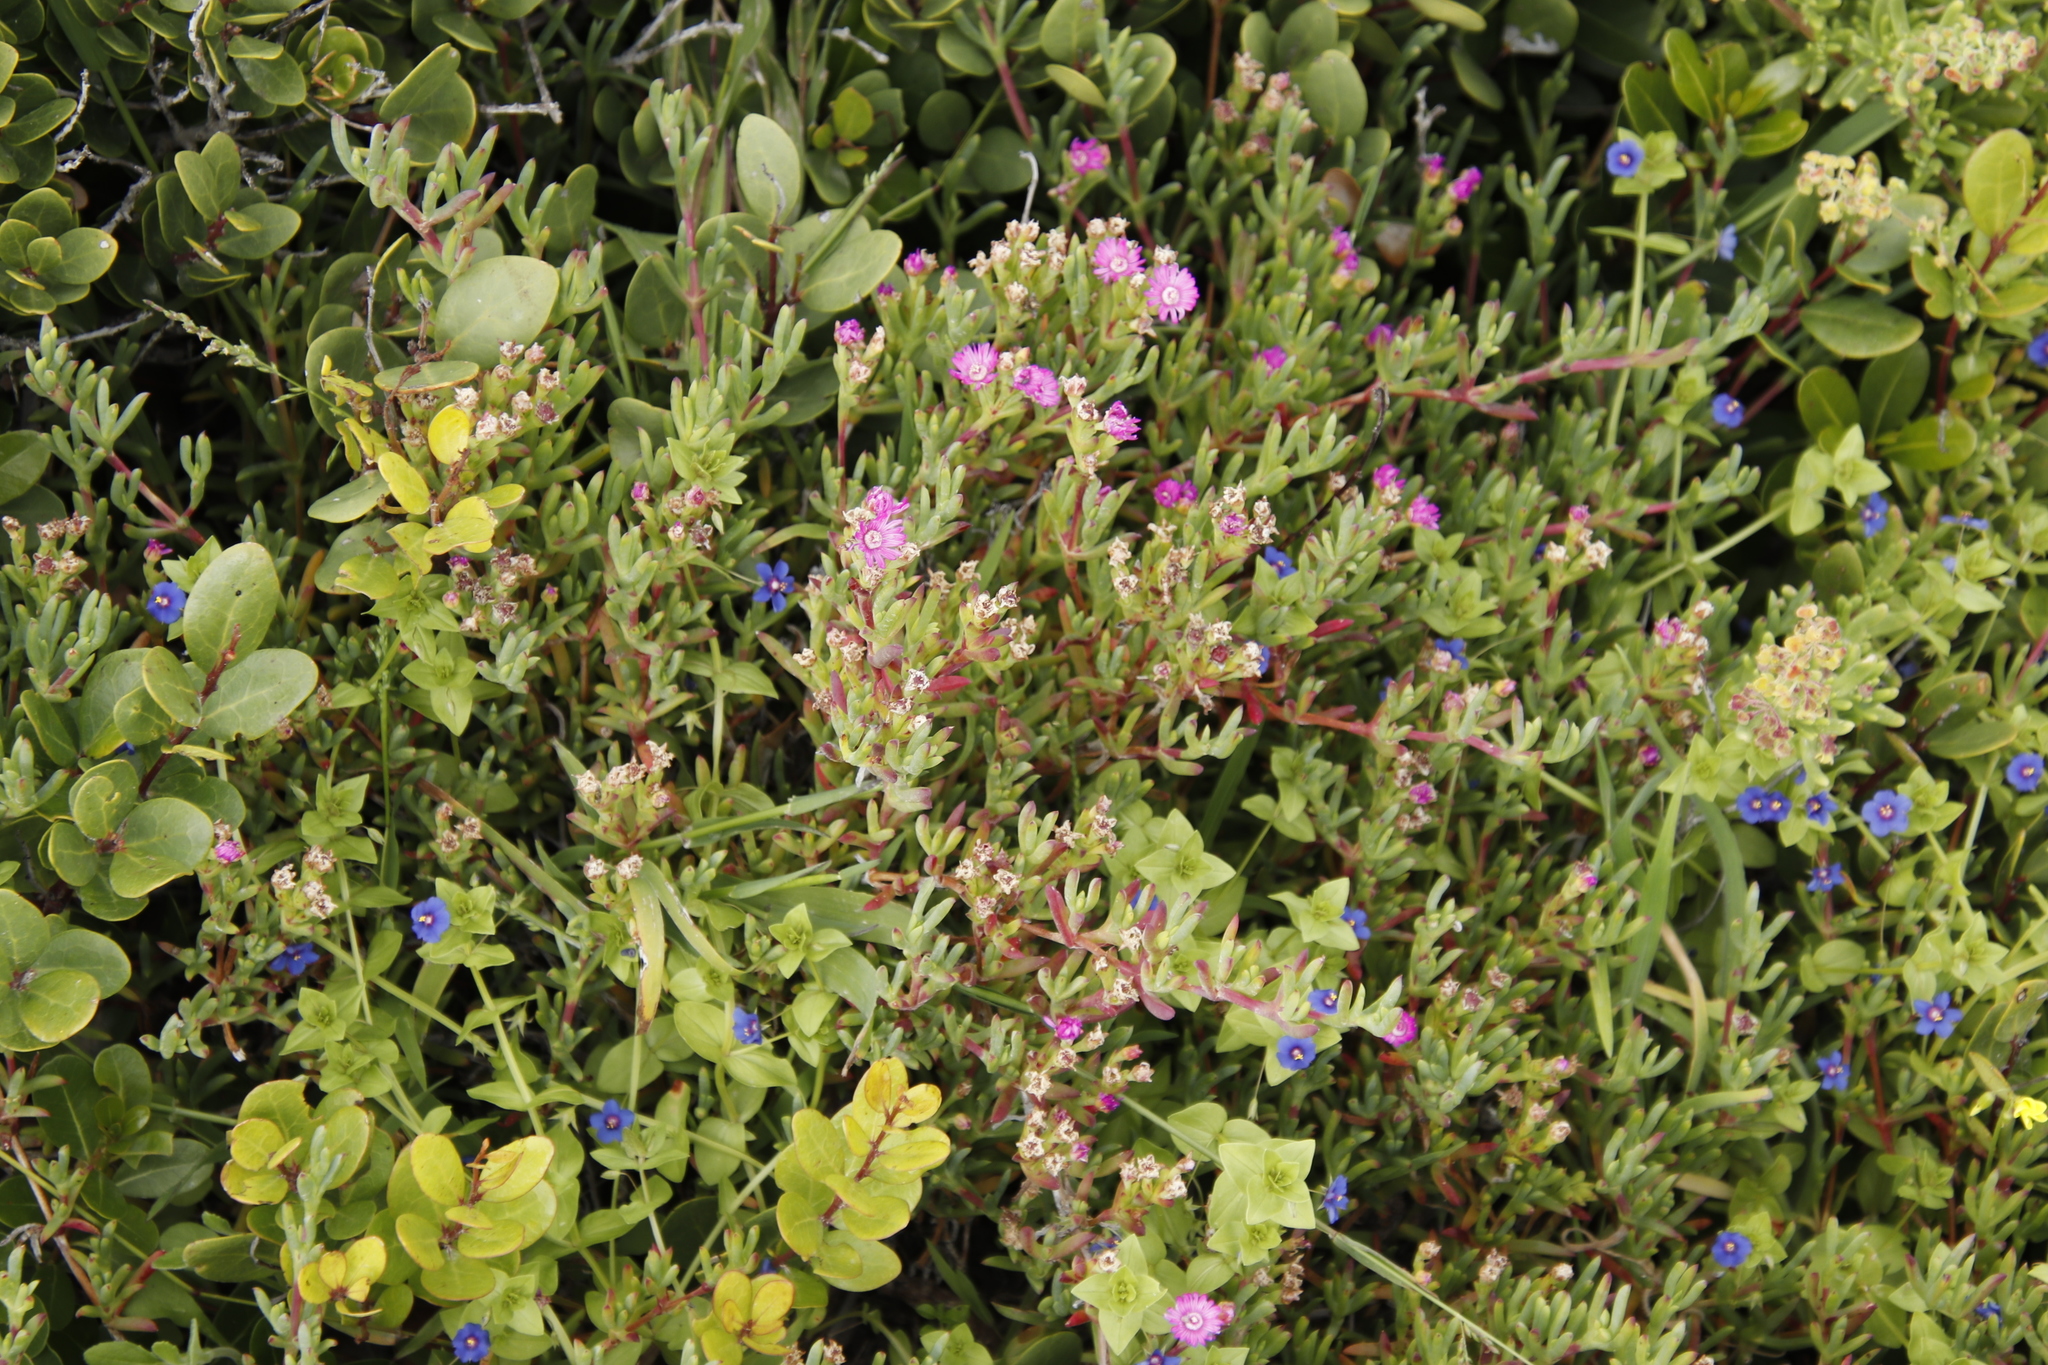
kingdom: Plantae
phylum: Tracheophyta
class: Magnoliopsida
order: Ericales
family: Primulaceae
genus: Lysimachia
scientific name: Lysimachia loeflingii
